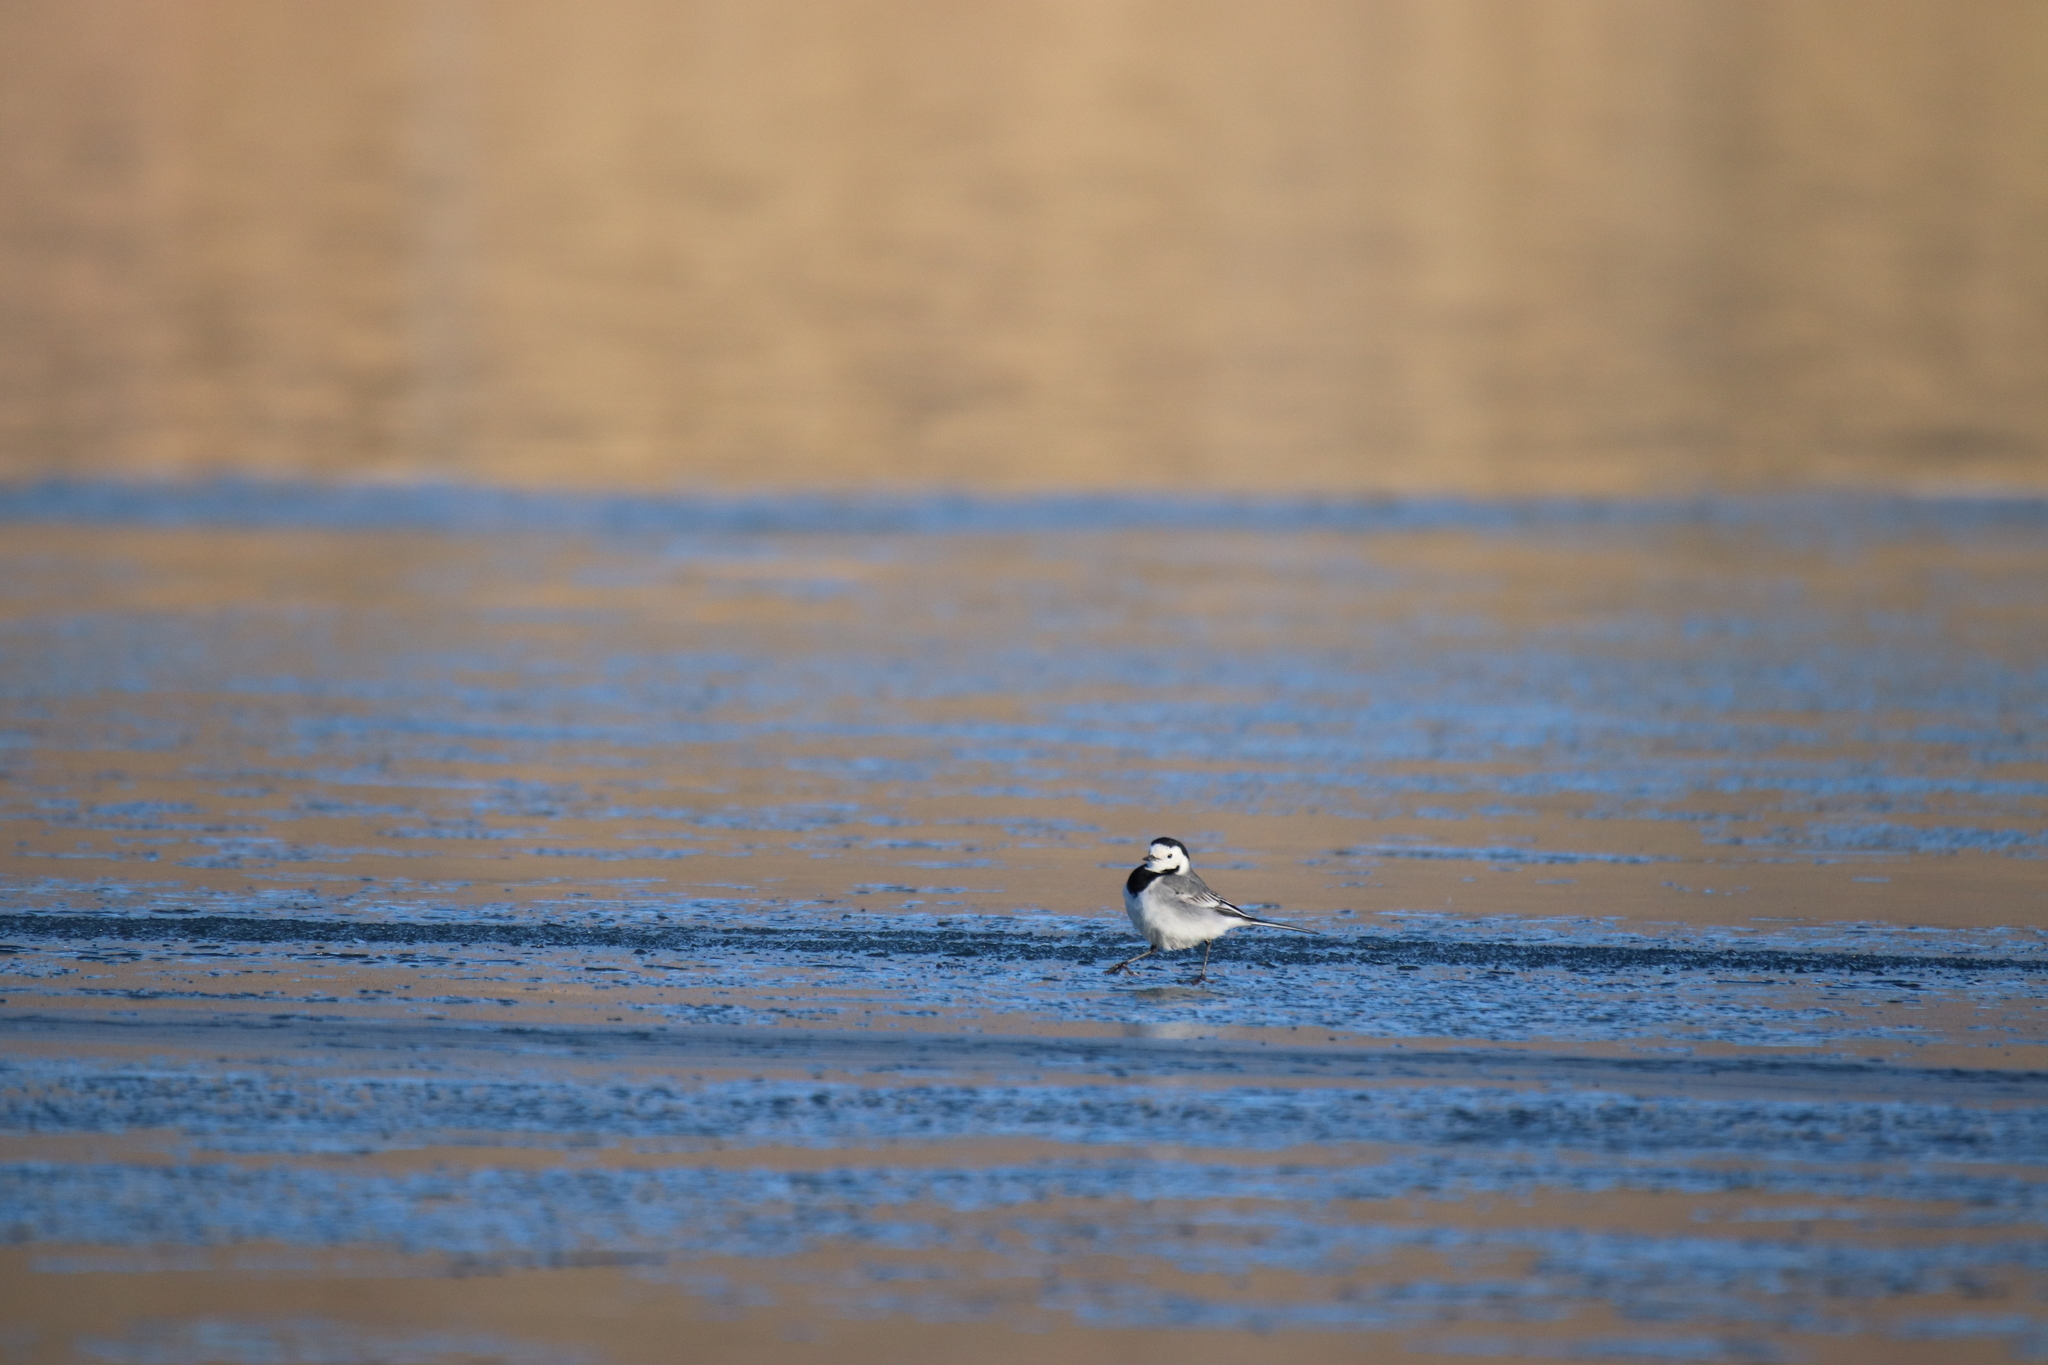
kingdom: Animalia
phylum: Chordata
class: Aves
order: Passeriformes
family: Motacillidae
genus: Motacilla
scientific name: Motacilla alba
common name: White wagtail
